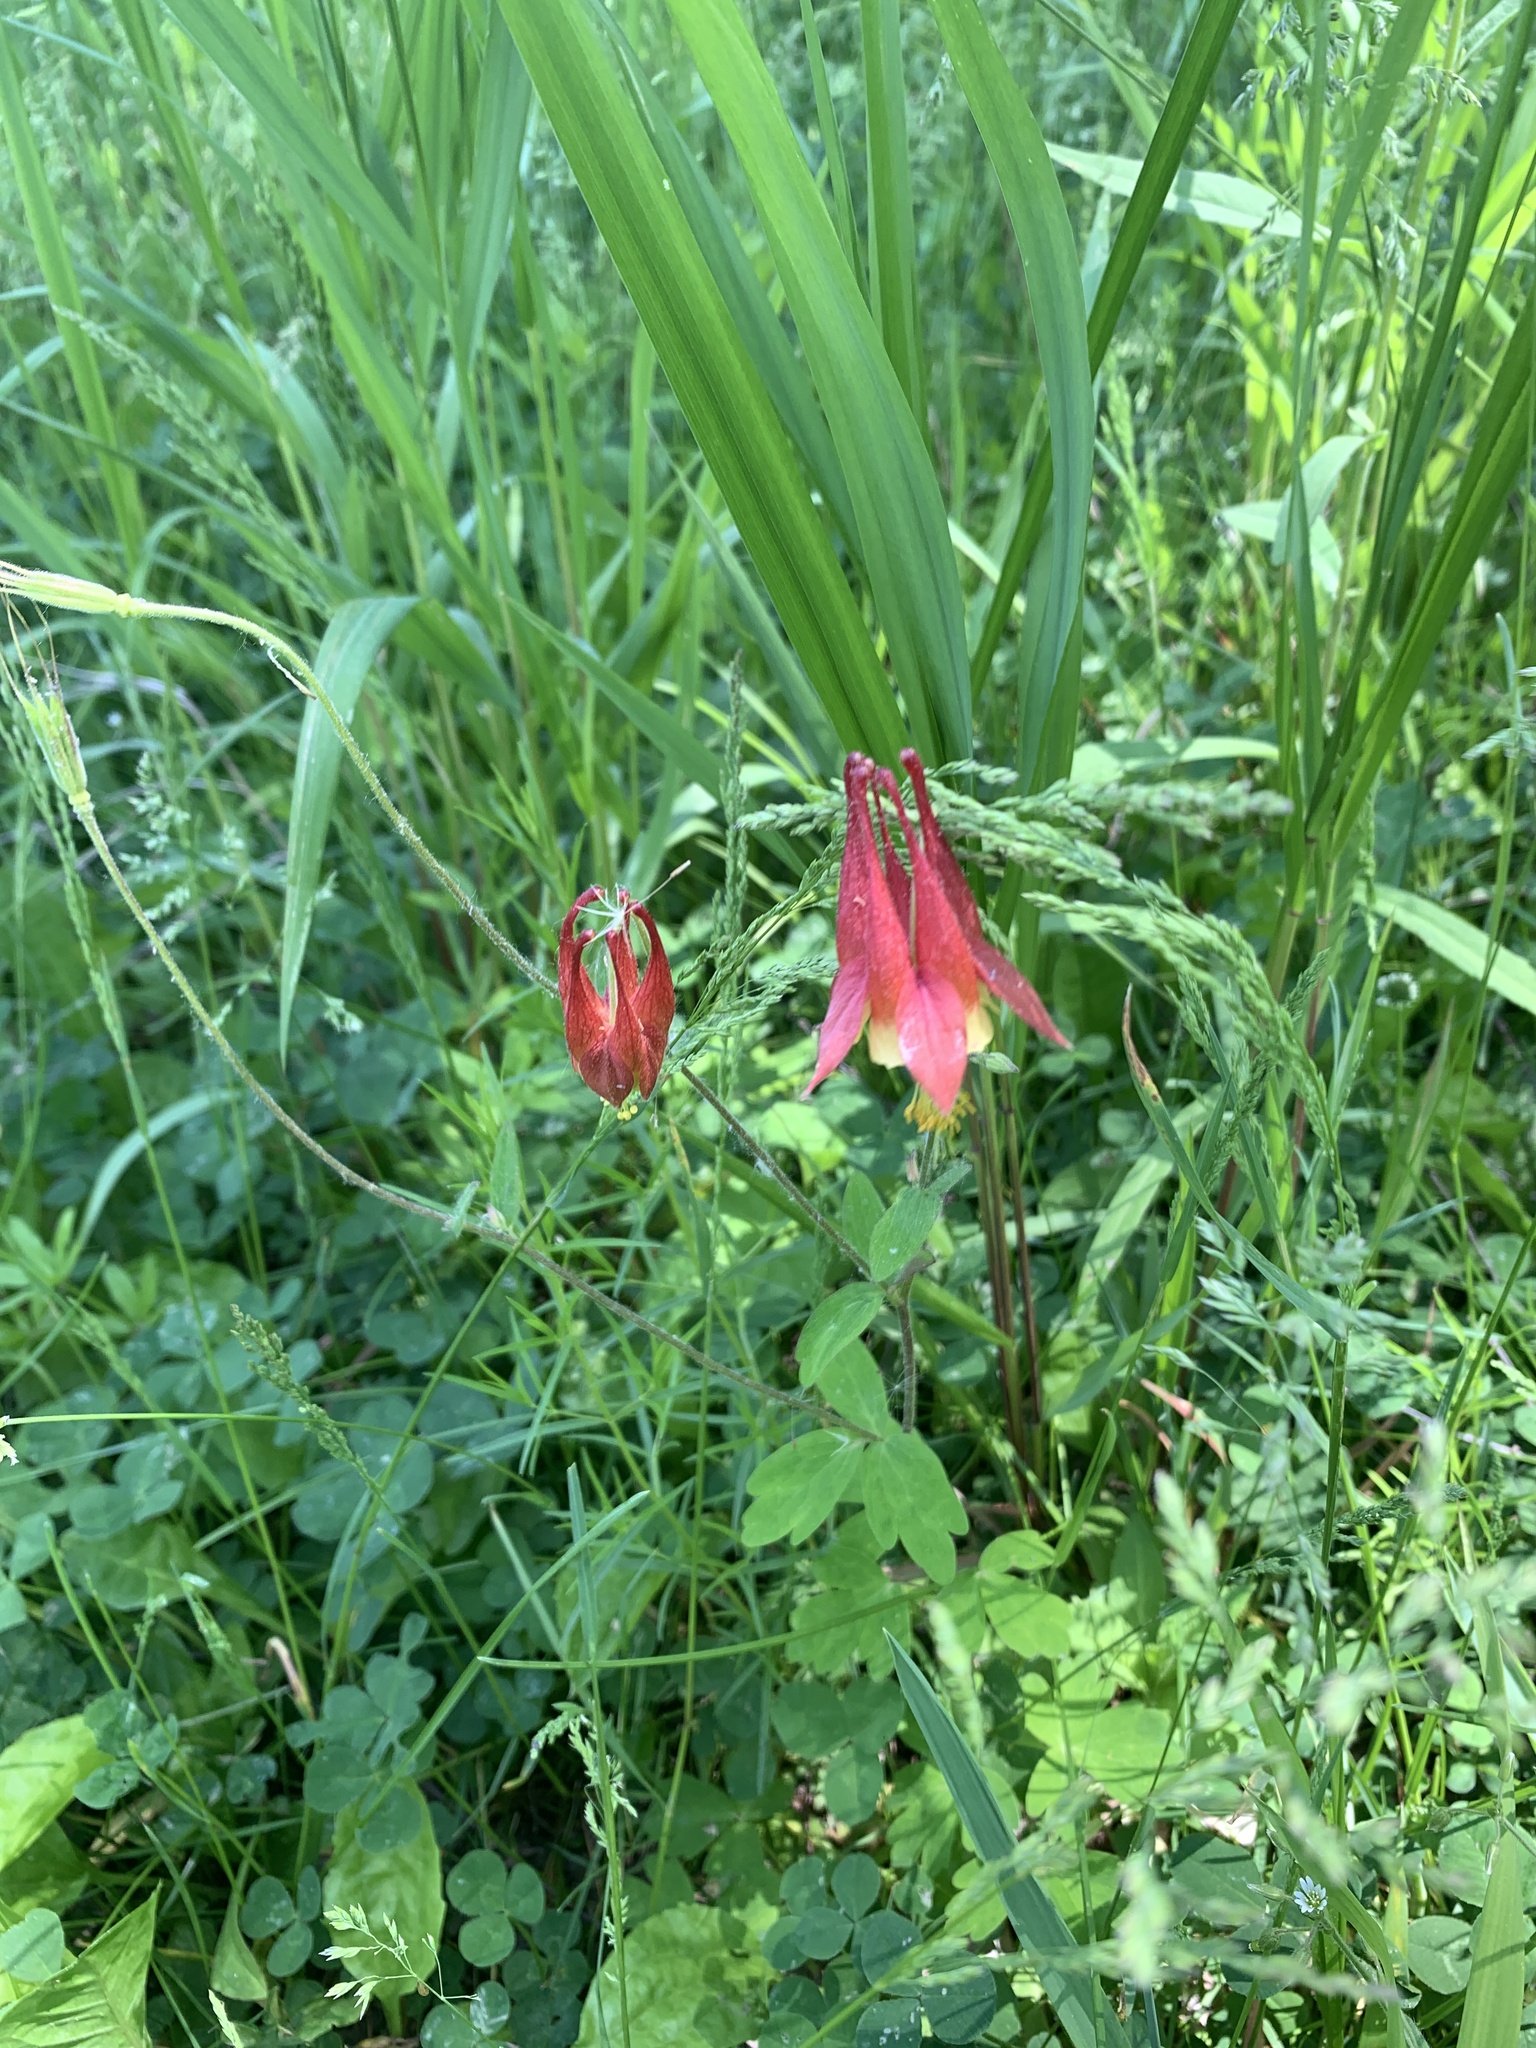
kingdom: Plantae
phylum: Tracheophyta
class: Magnoliopsida
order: Ranunculales
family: Ranunculaceae
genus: Aquilegia
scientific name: Aquilegia canadensis
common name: American columbine
